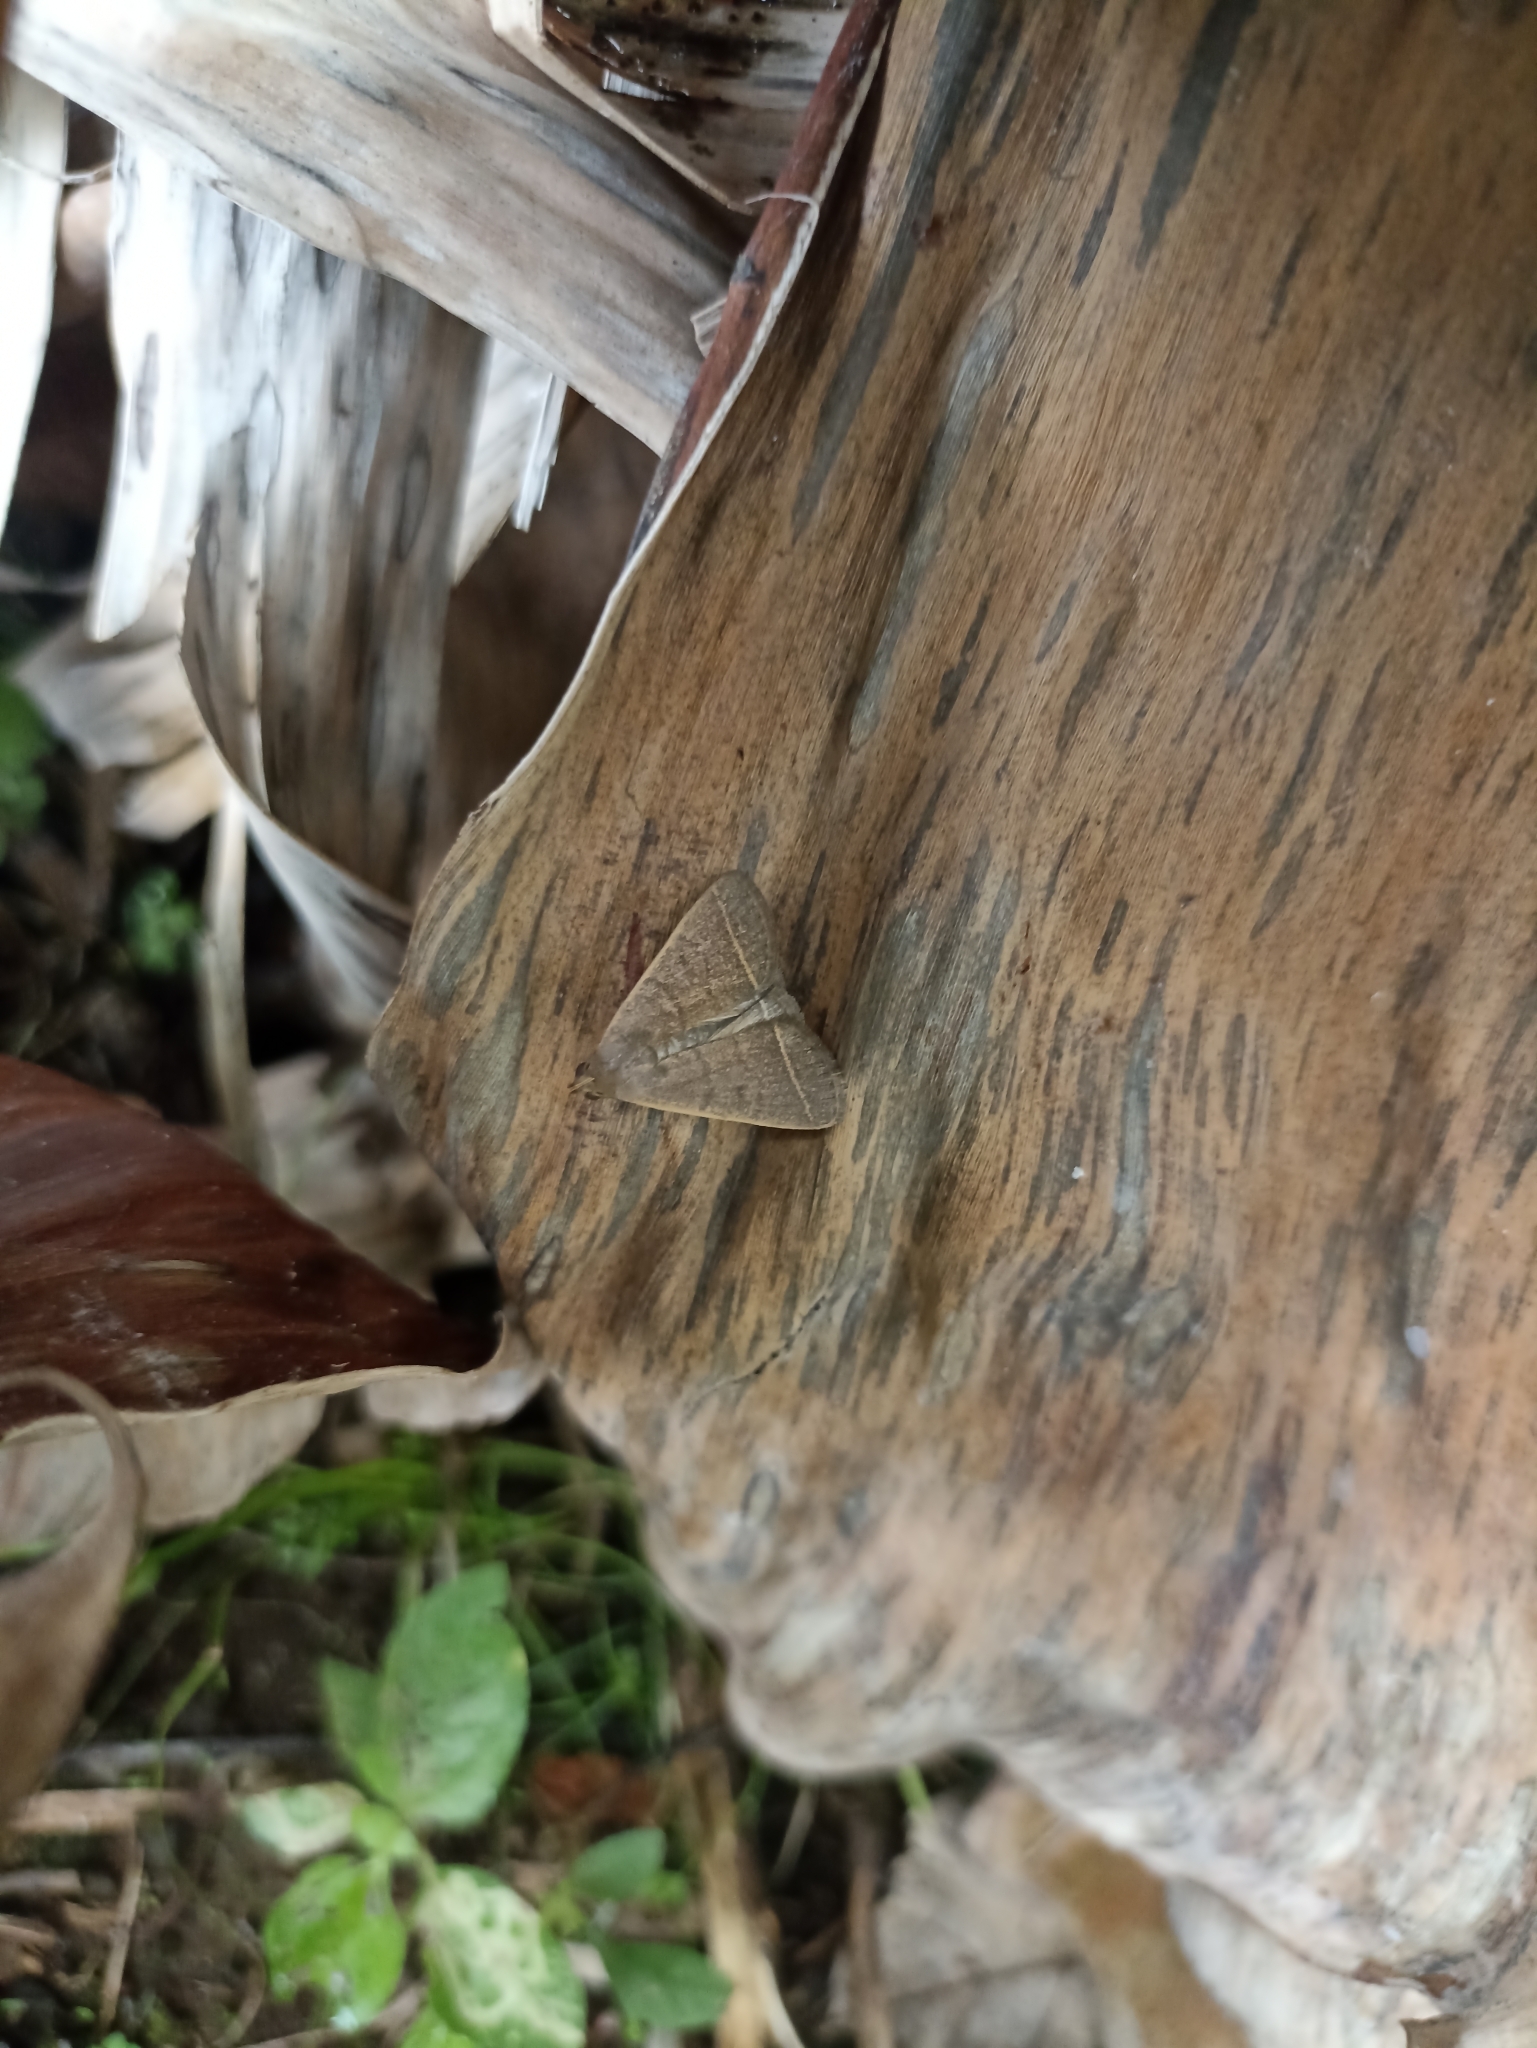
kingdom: Animalia
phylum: Arthropoda
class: Insecta
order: Lepidoptera
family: Erebidae
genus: Simplicia
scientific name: Simplicia cornicalis
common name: Tiki hut litter moth
